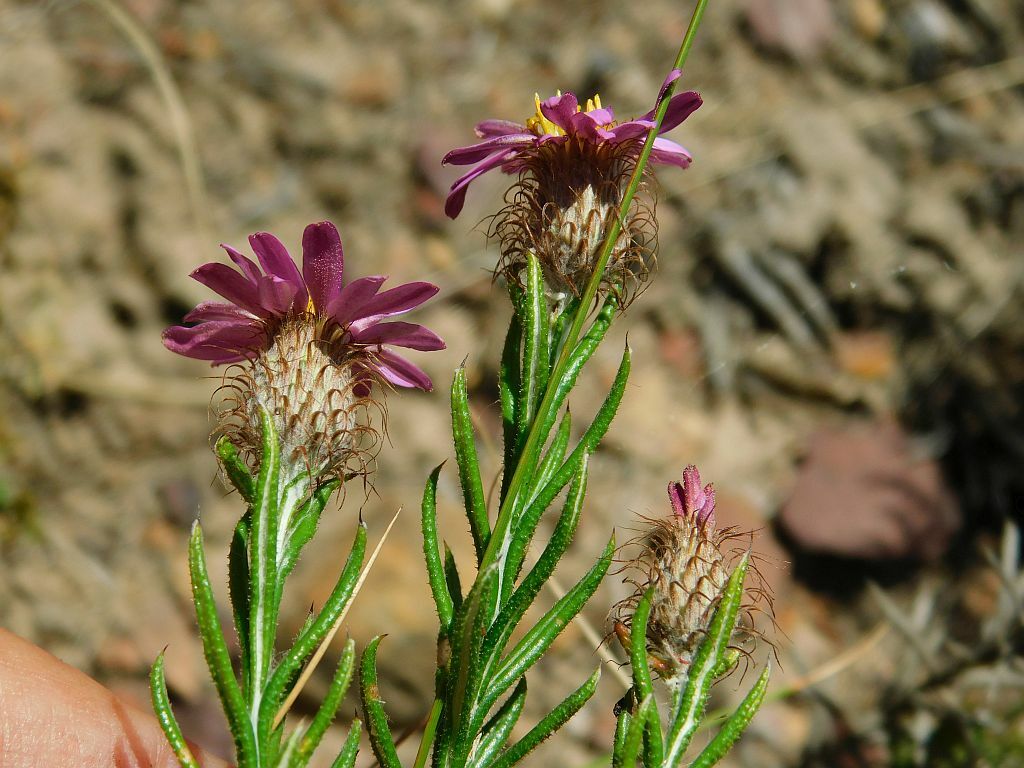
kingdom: Plantae
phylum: Tracheophyta
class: Magnoliopsida
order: Asterales
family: Asteraceae
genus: Athrixia
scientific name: Athrixia capensis
